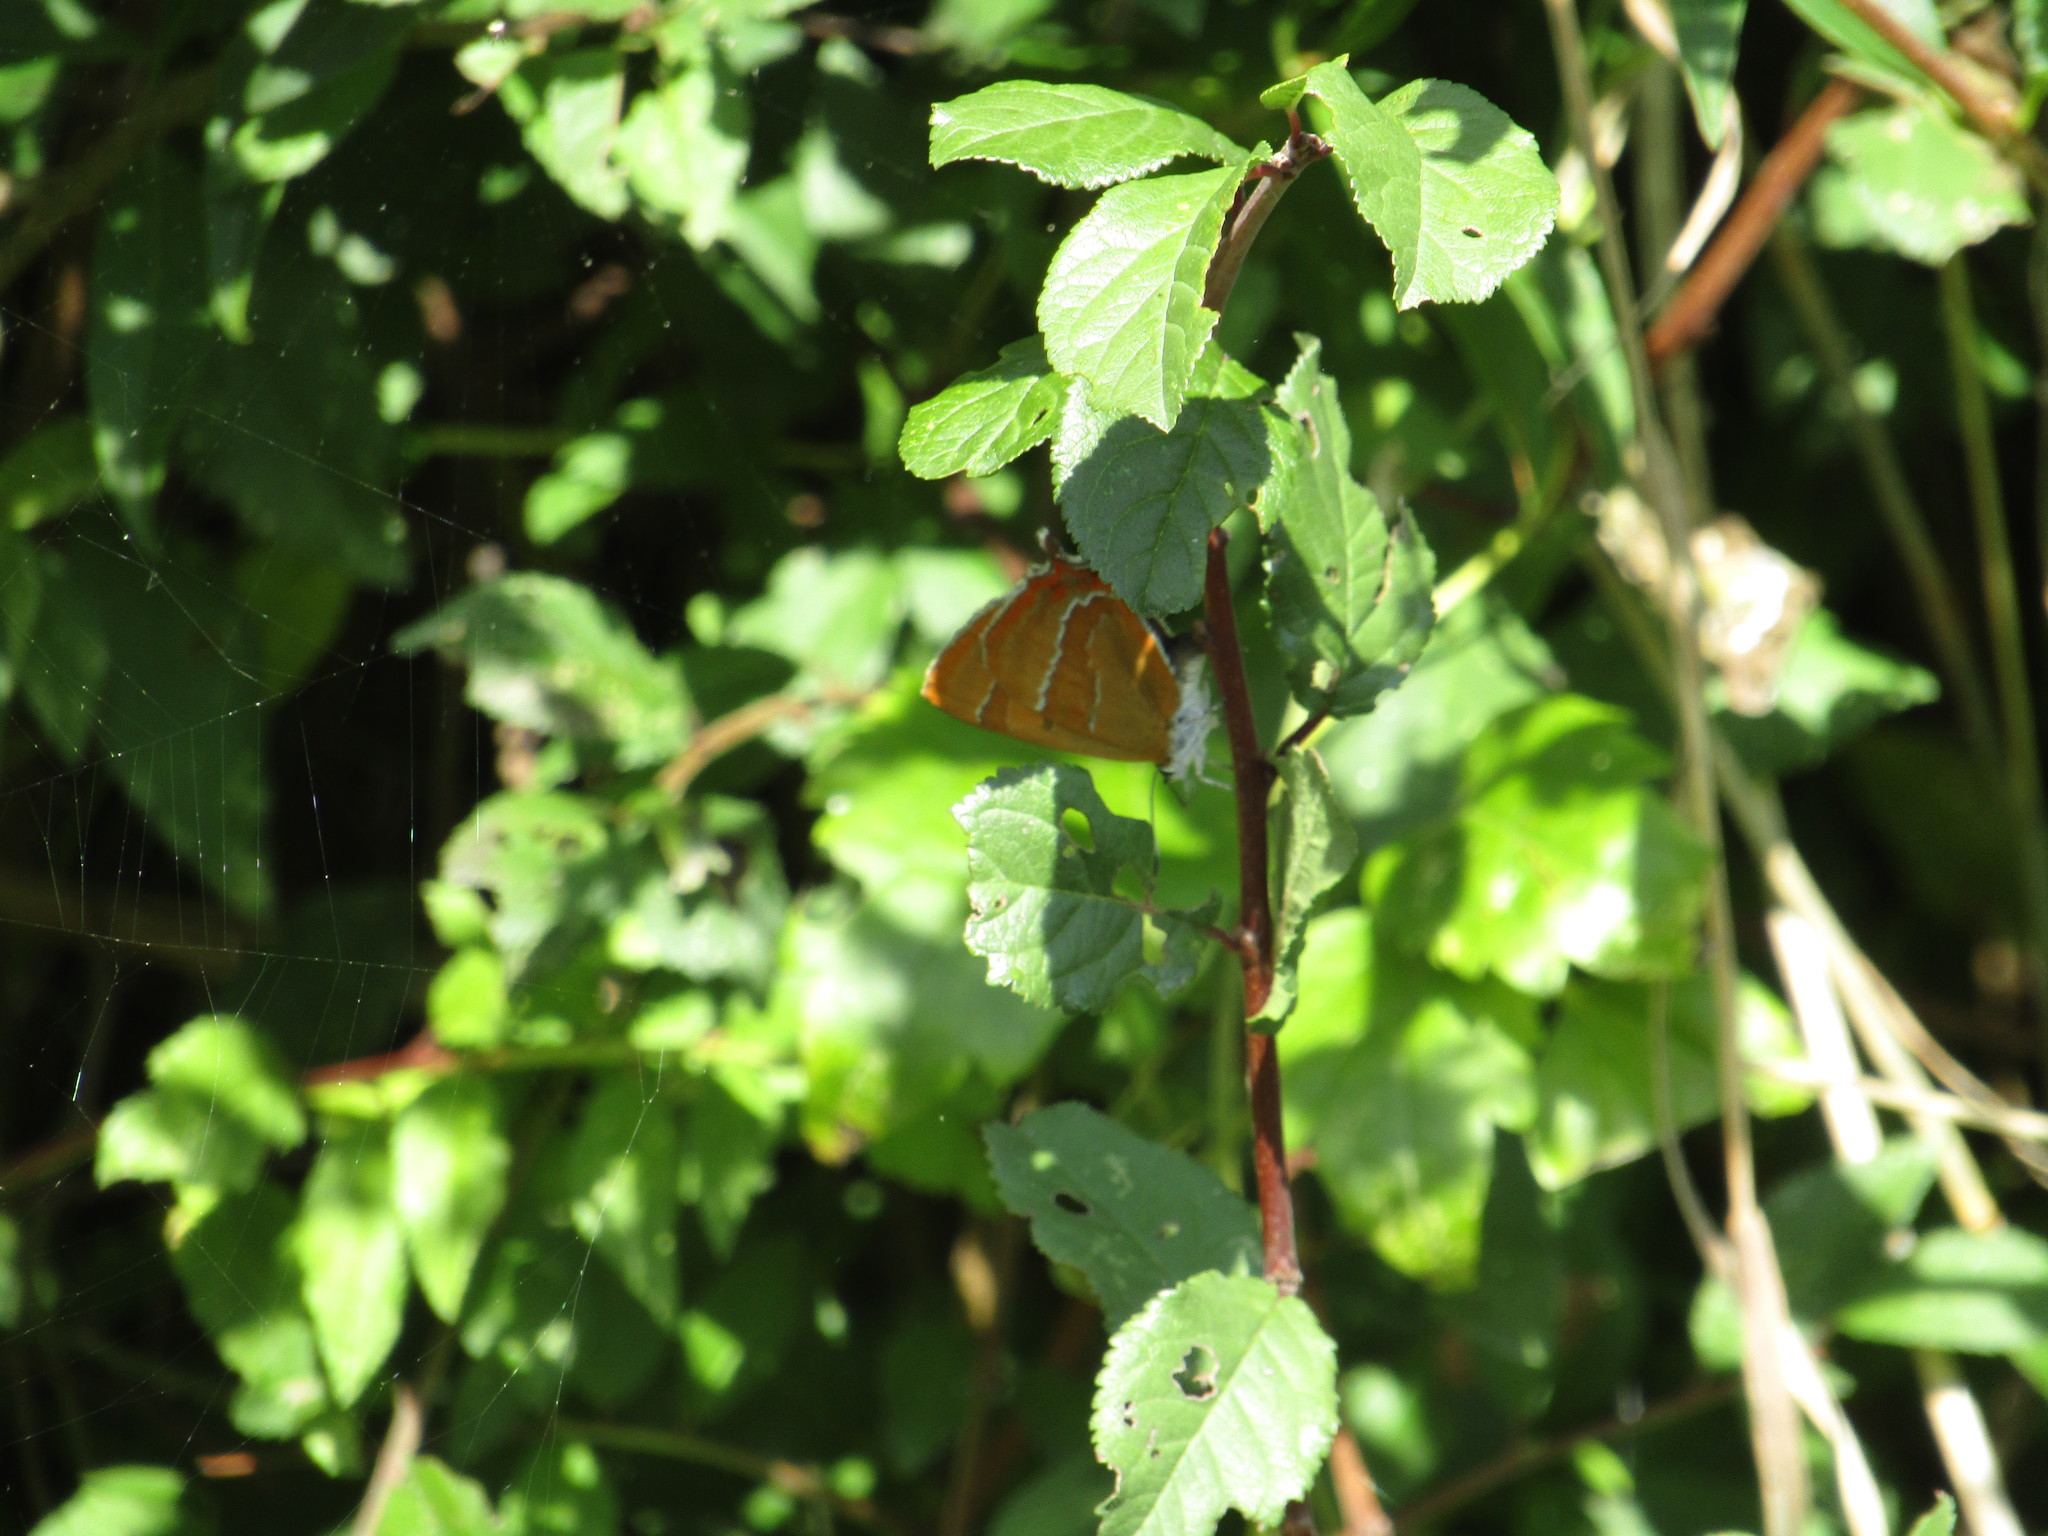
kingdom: Animalia
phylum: Arthropoda
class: Insecta
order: Lepidoptera
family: Lycaenidae
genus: Thecla
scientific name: Thecla betulae
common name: Brown hairstreak
